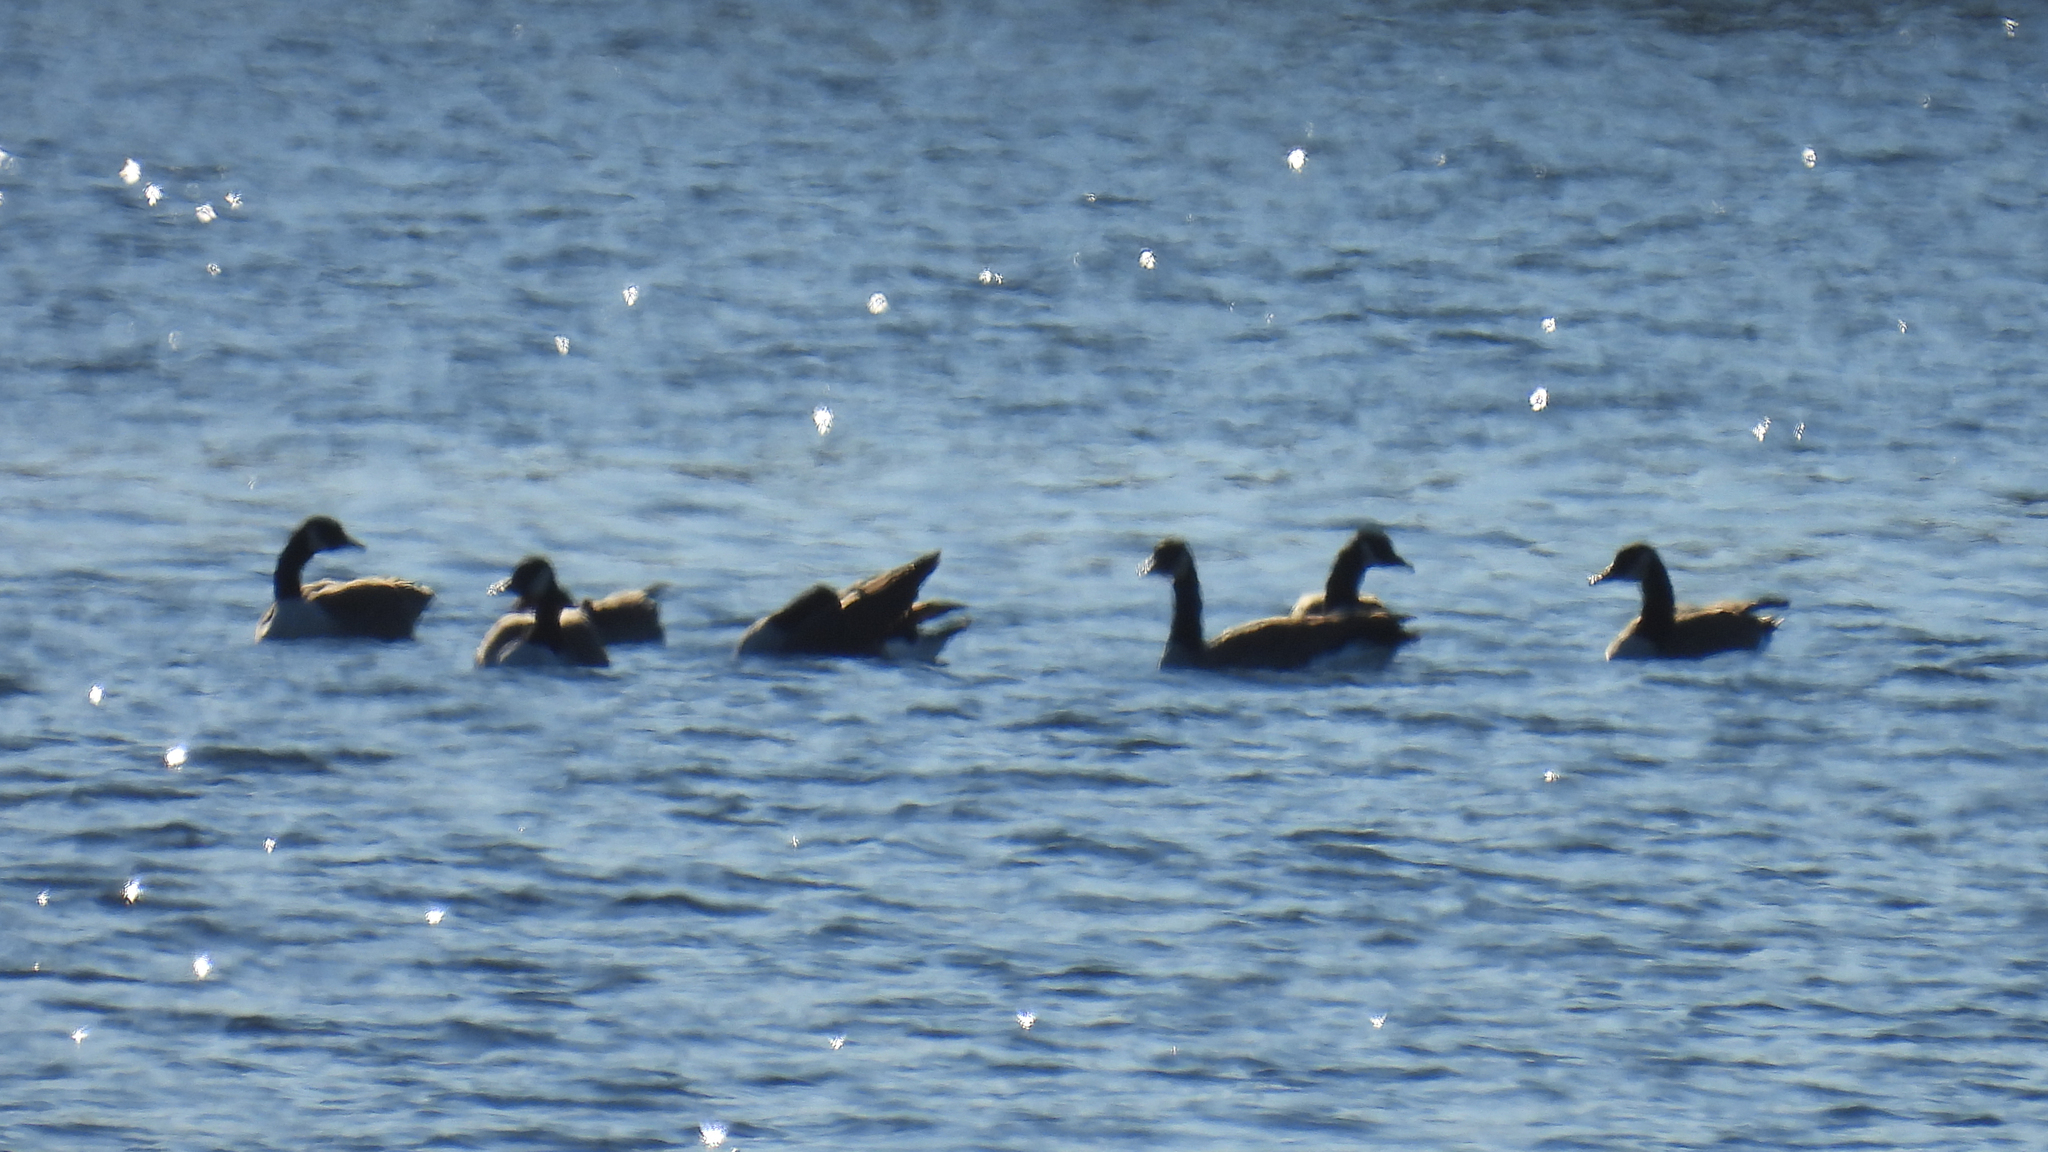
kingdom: Animalia
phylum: Chordata
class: Aves
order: Anseriformes
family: Anatidae
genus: Branta
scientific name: Branta canadensis
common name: Canada goose
